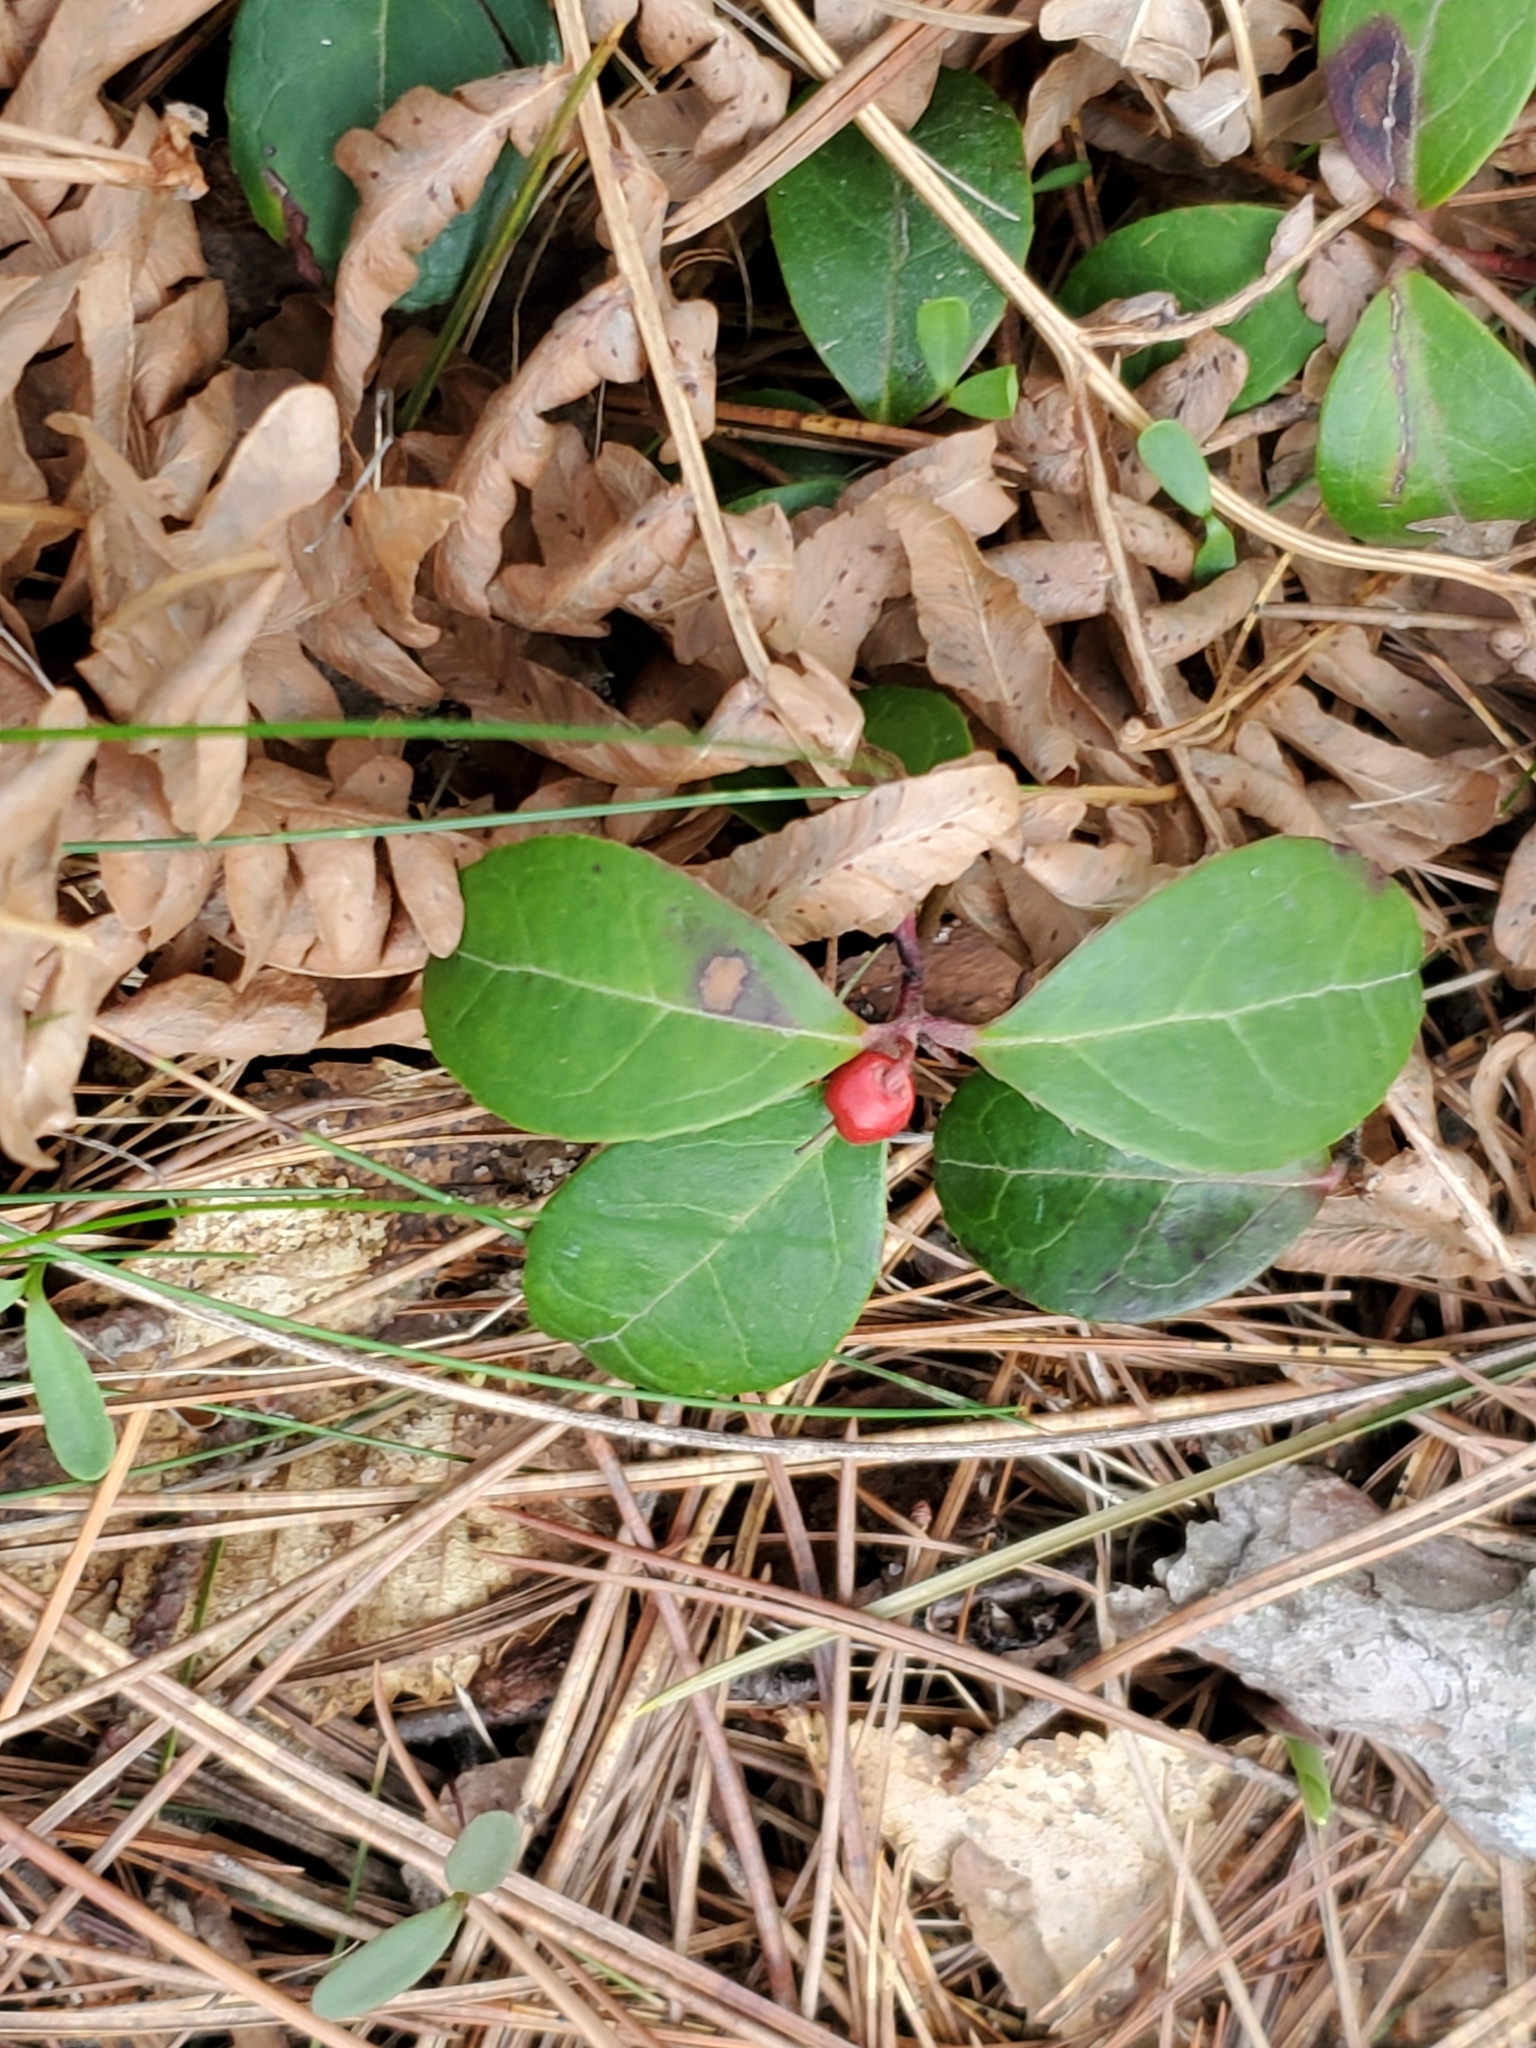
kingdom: Plantae
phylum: Tracheophyta
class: Magnoliopsida
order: Ericales
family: Ericaceae
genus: Gaultheria
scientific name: Gaultheria procumbens
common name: Checkerberry
